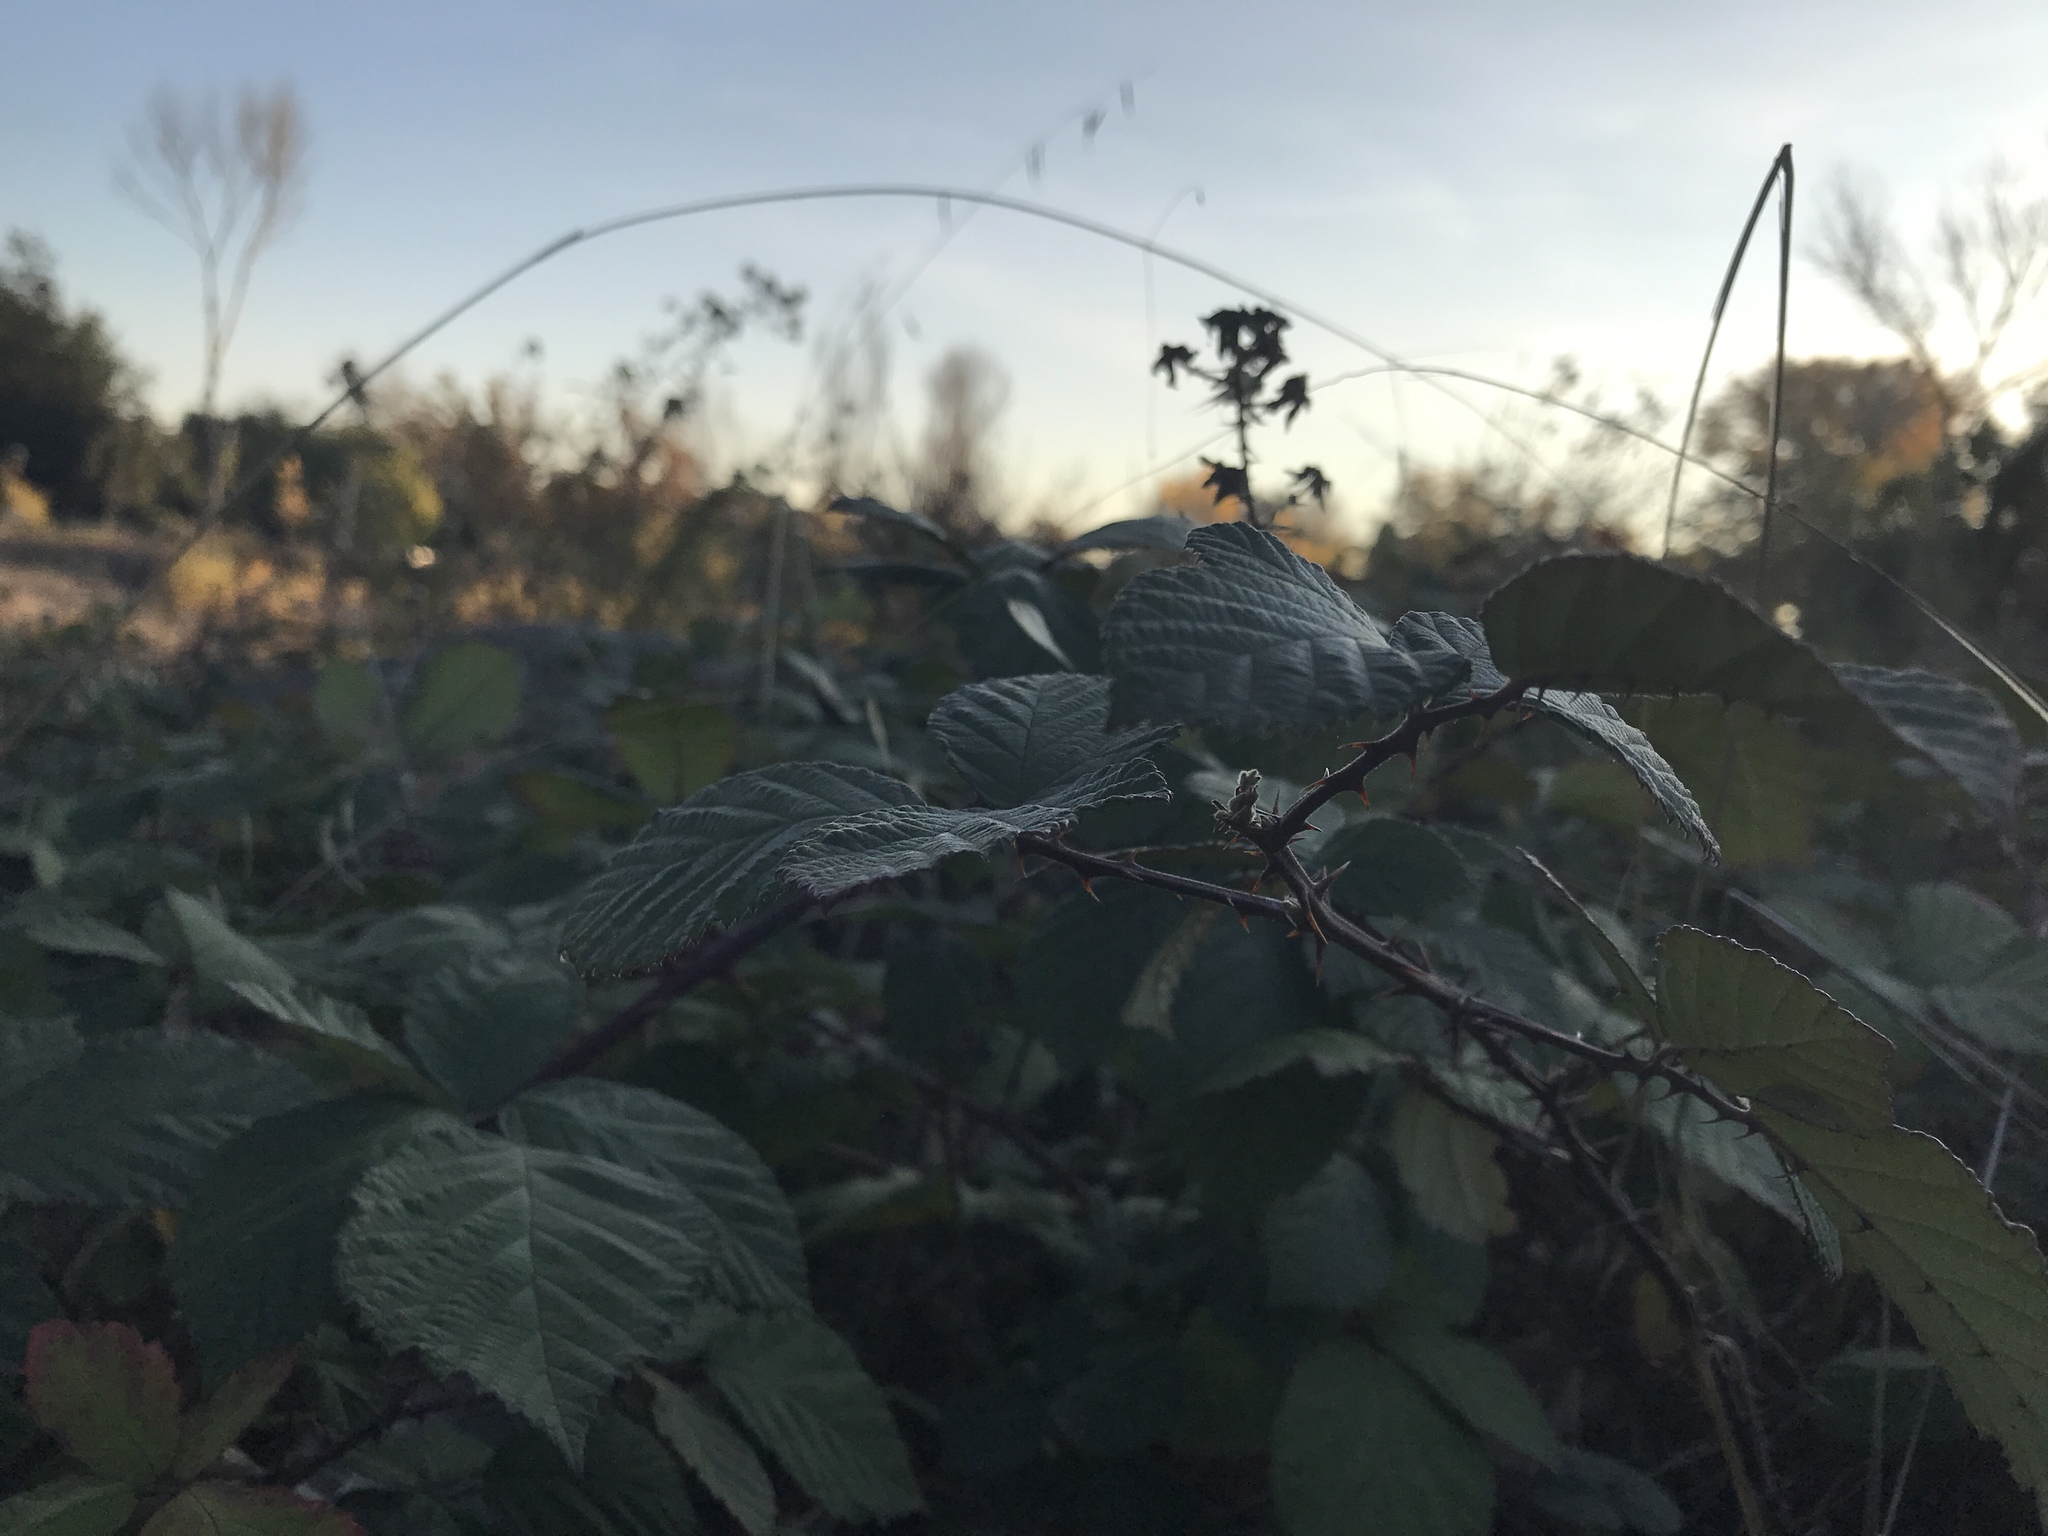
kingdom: Plantae
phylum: Tracheophyta
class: Magnoliopsida
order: Rosales
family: Rosaceae
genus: Rubus
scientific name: Rubus armeniacus
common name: Himalayan blackberry
